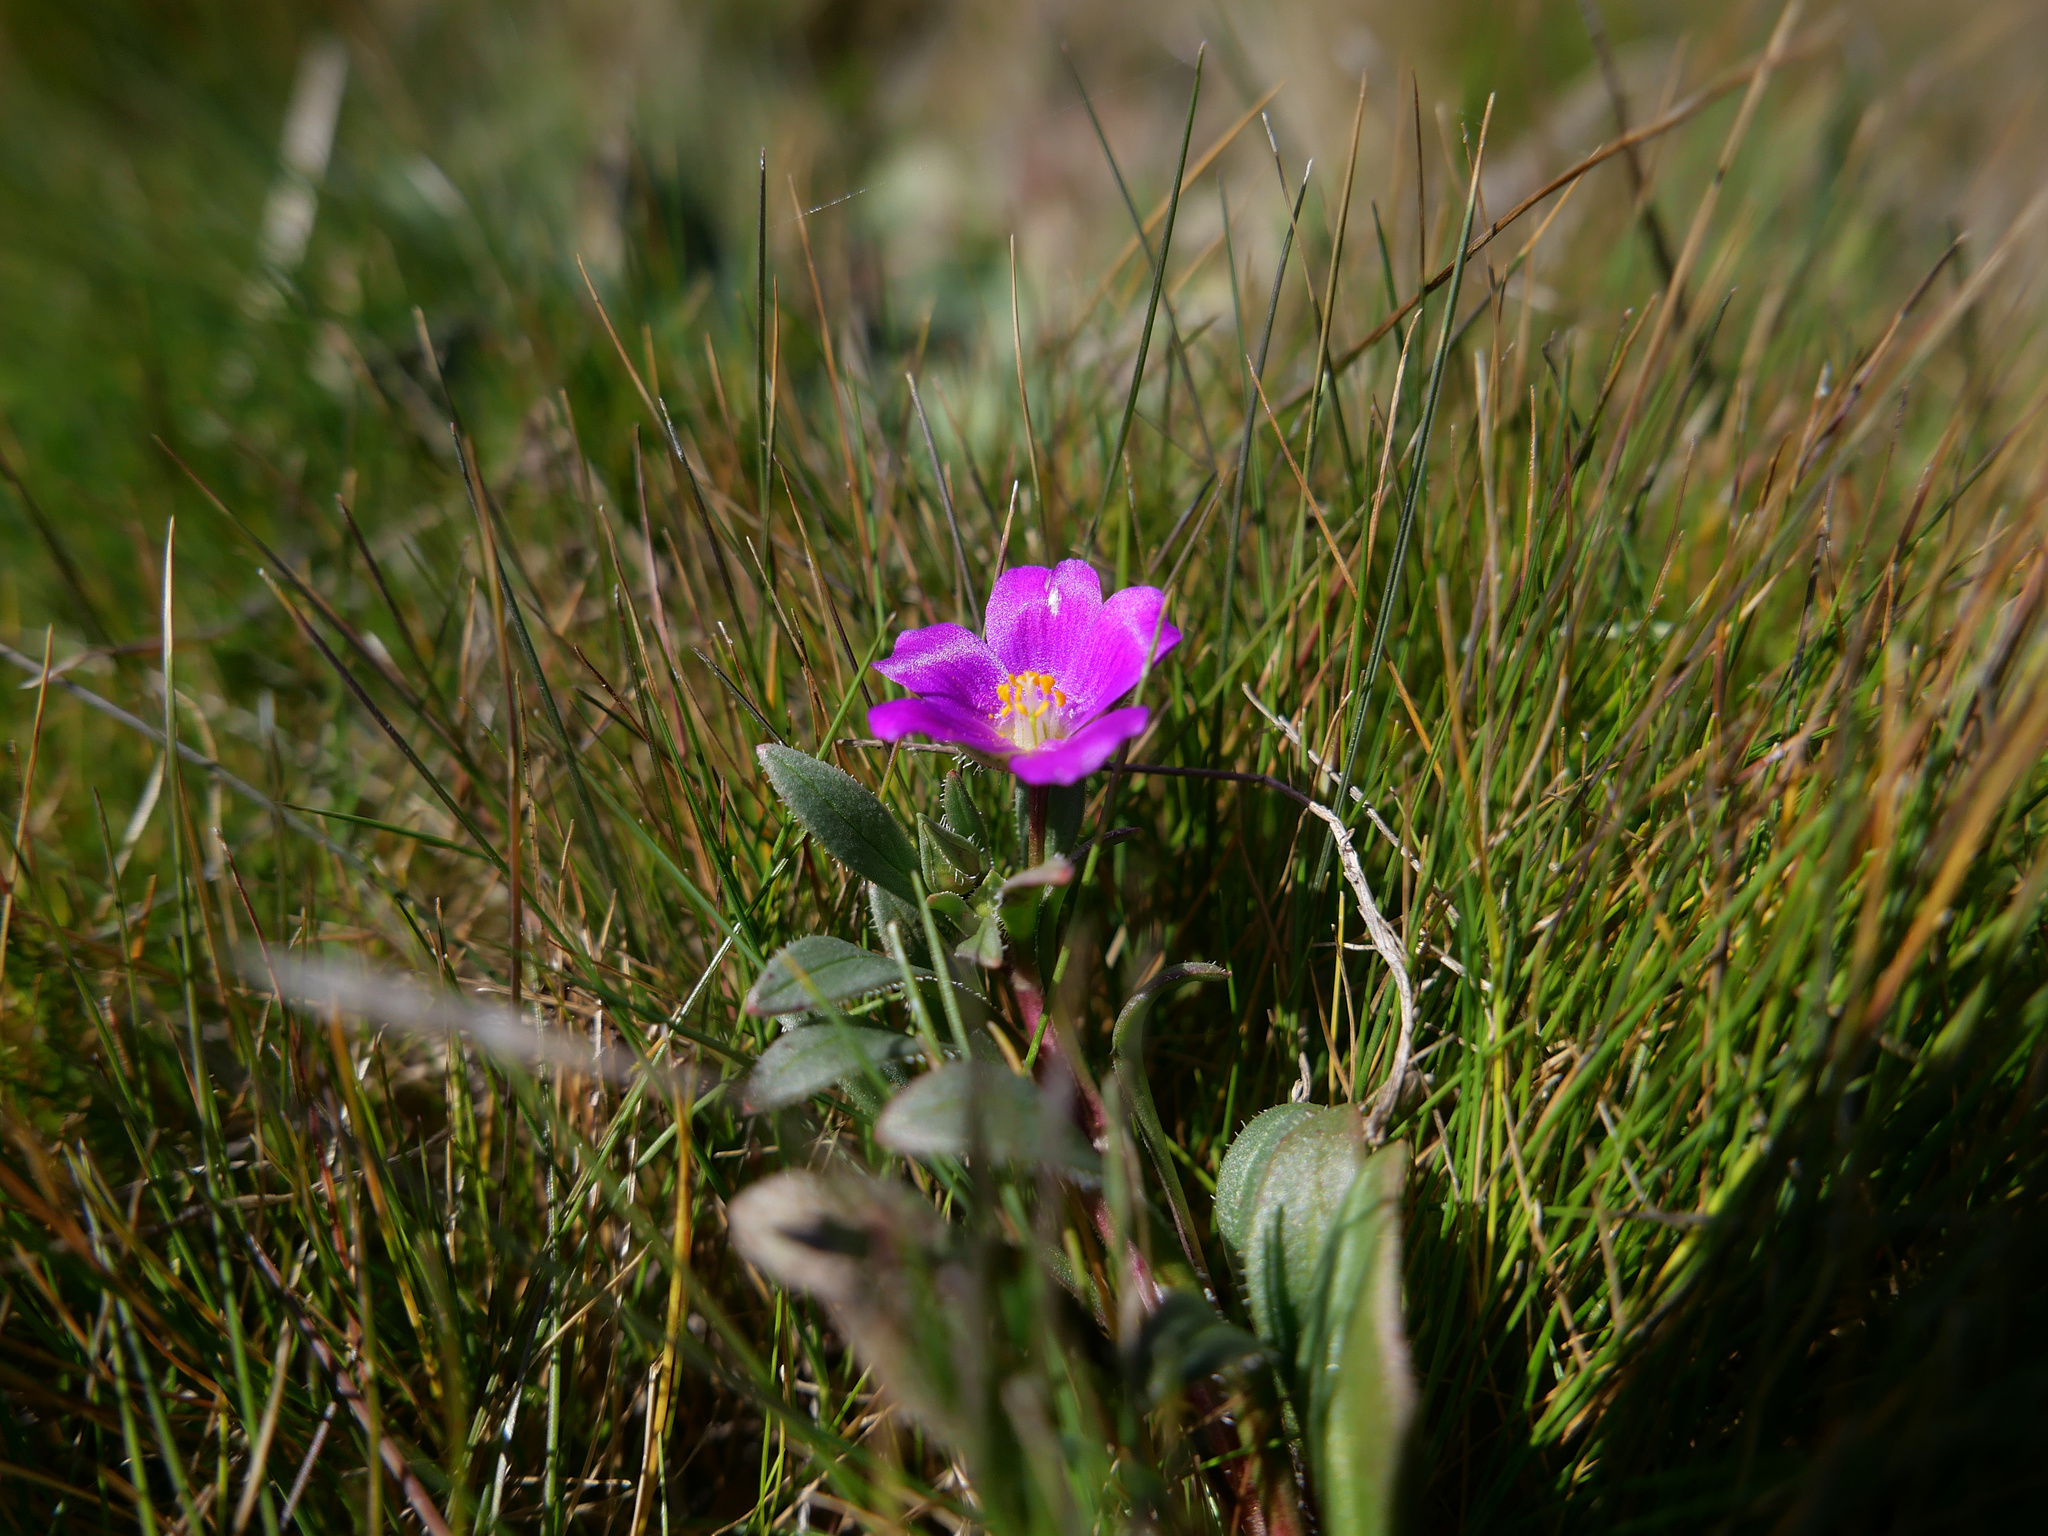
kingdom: Plantae
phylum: Tracheophyta
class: Magnoliopsida
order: Caryophyllales
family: Montiaceae
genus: Calandrinia
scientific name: Calandrinia menziesii
